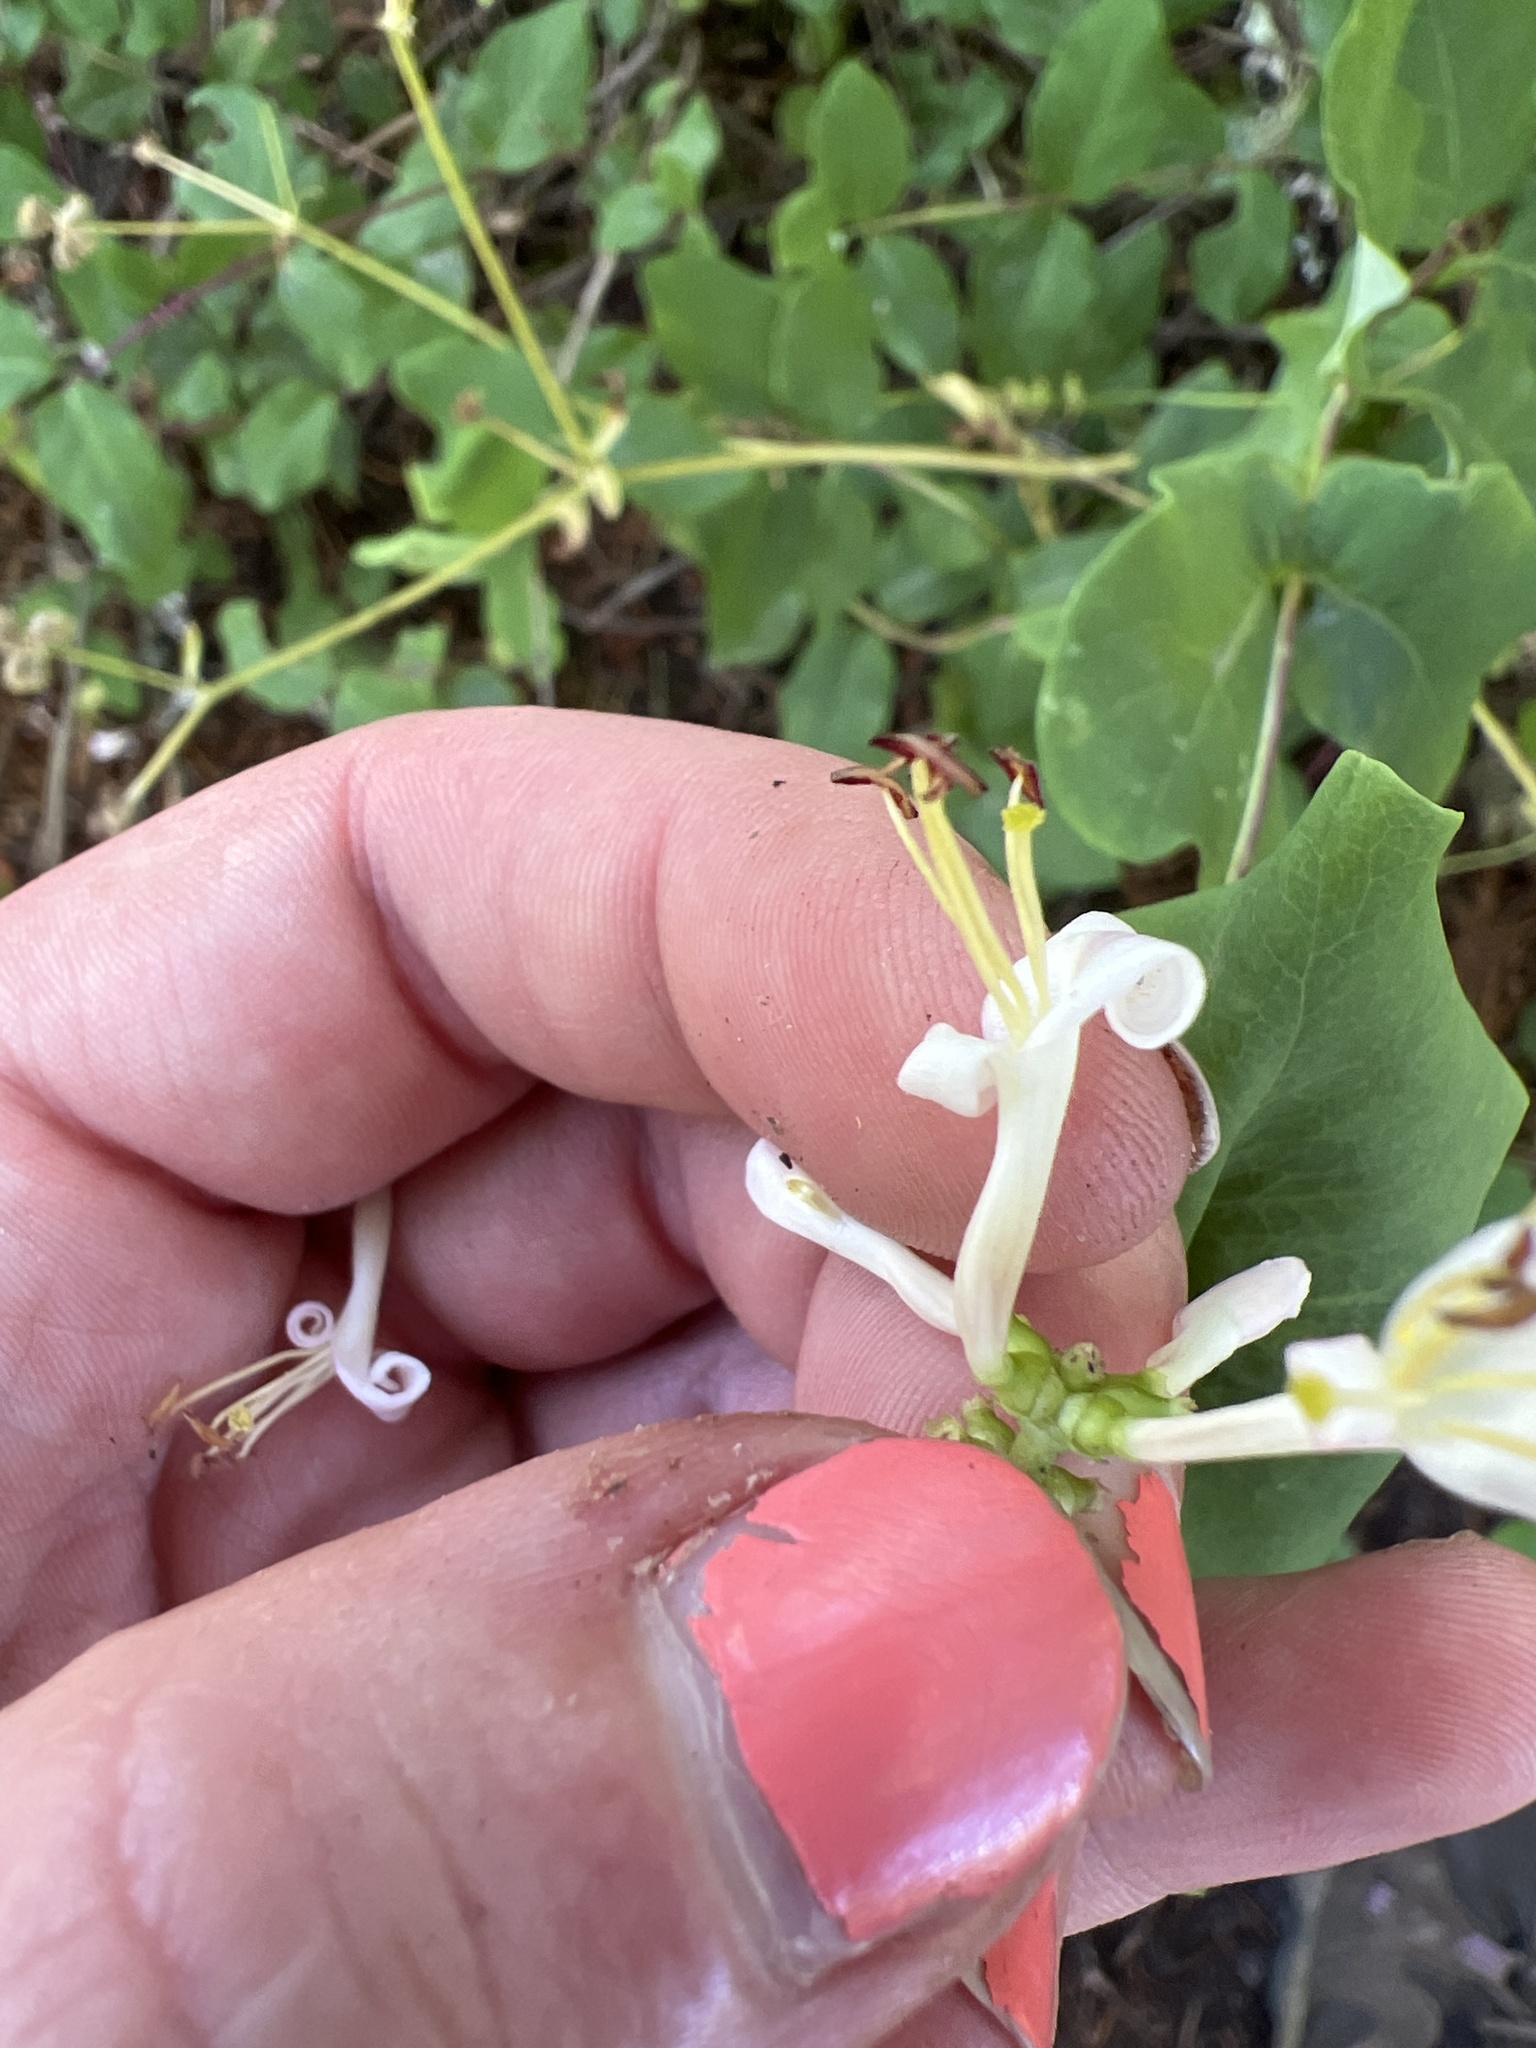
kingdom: Plantae
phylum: Tracheophyta
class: Magnoliopsida
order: Dipsacales
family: Caprifoliaceae
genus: Lonicera
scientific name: Lonicera hispidula
